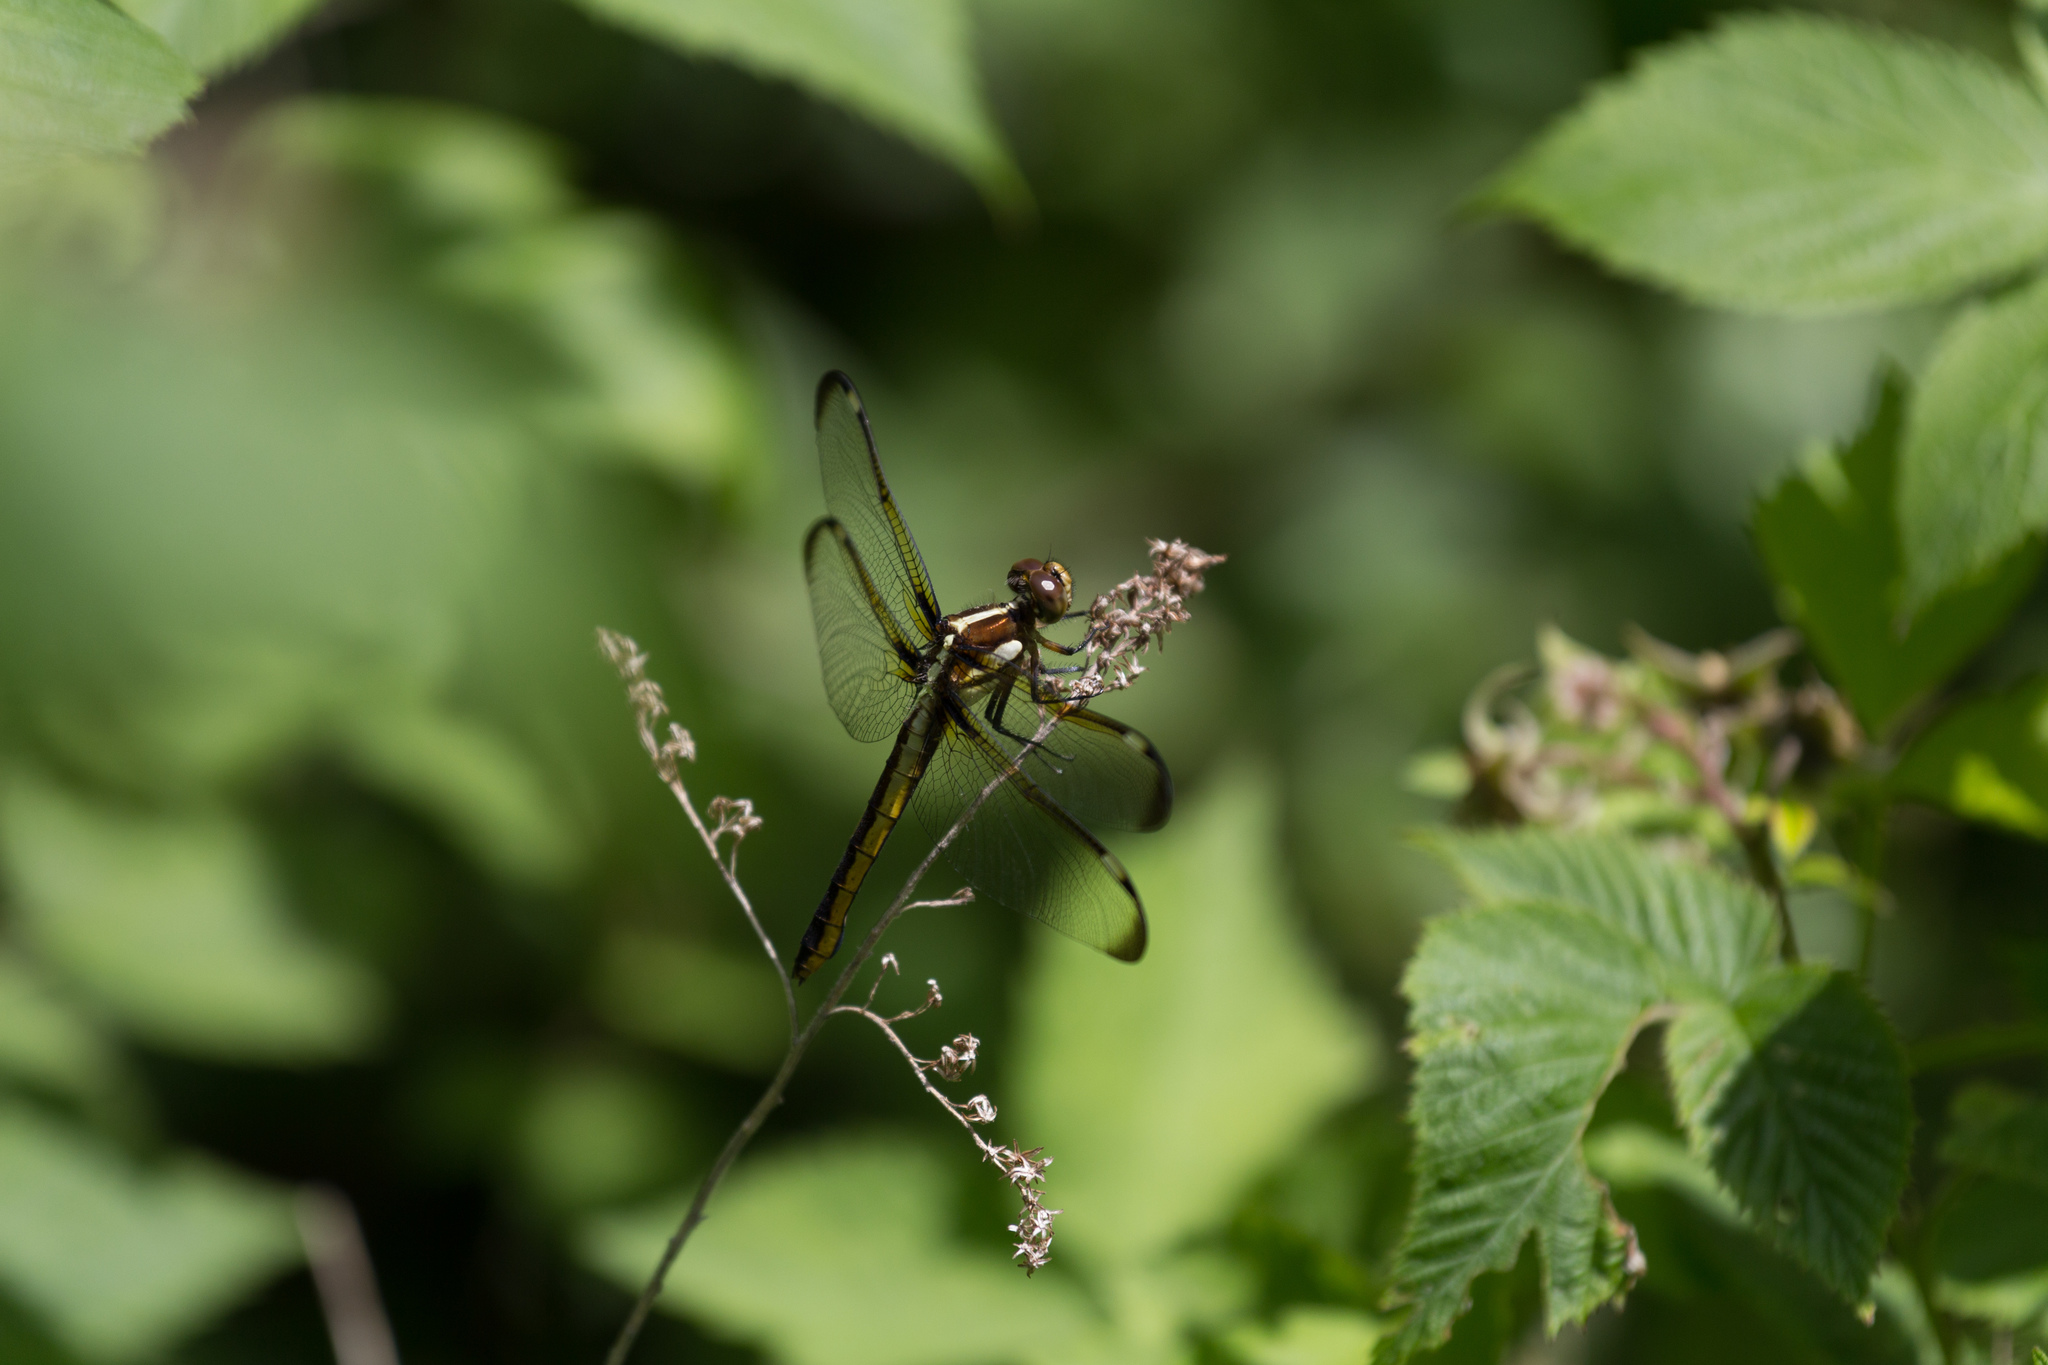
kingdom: Animalia
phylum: Arthropoda
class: Insecta
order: Odonata
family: Libellulidae
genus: Libellula
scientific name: Libellula cyanea
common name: Spangled skimmer
